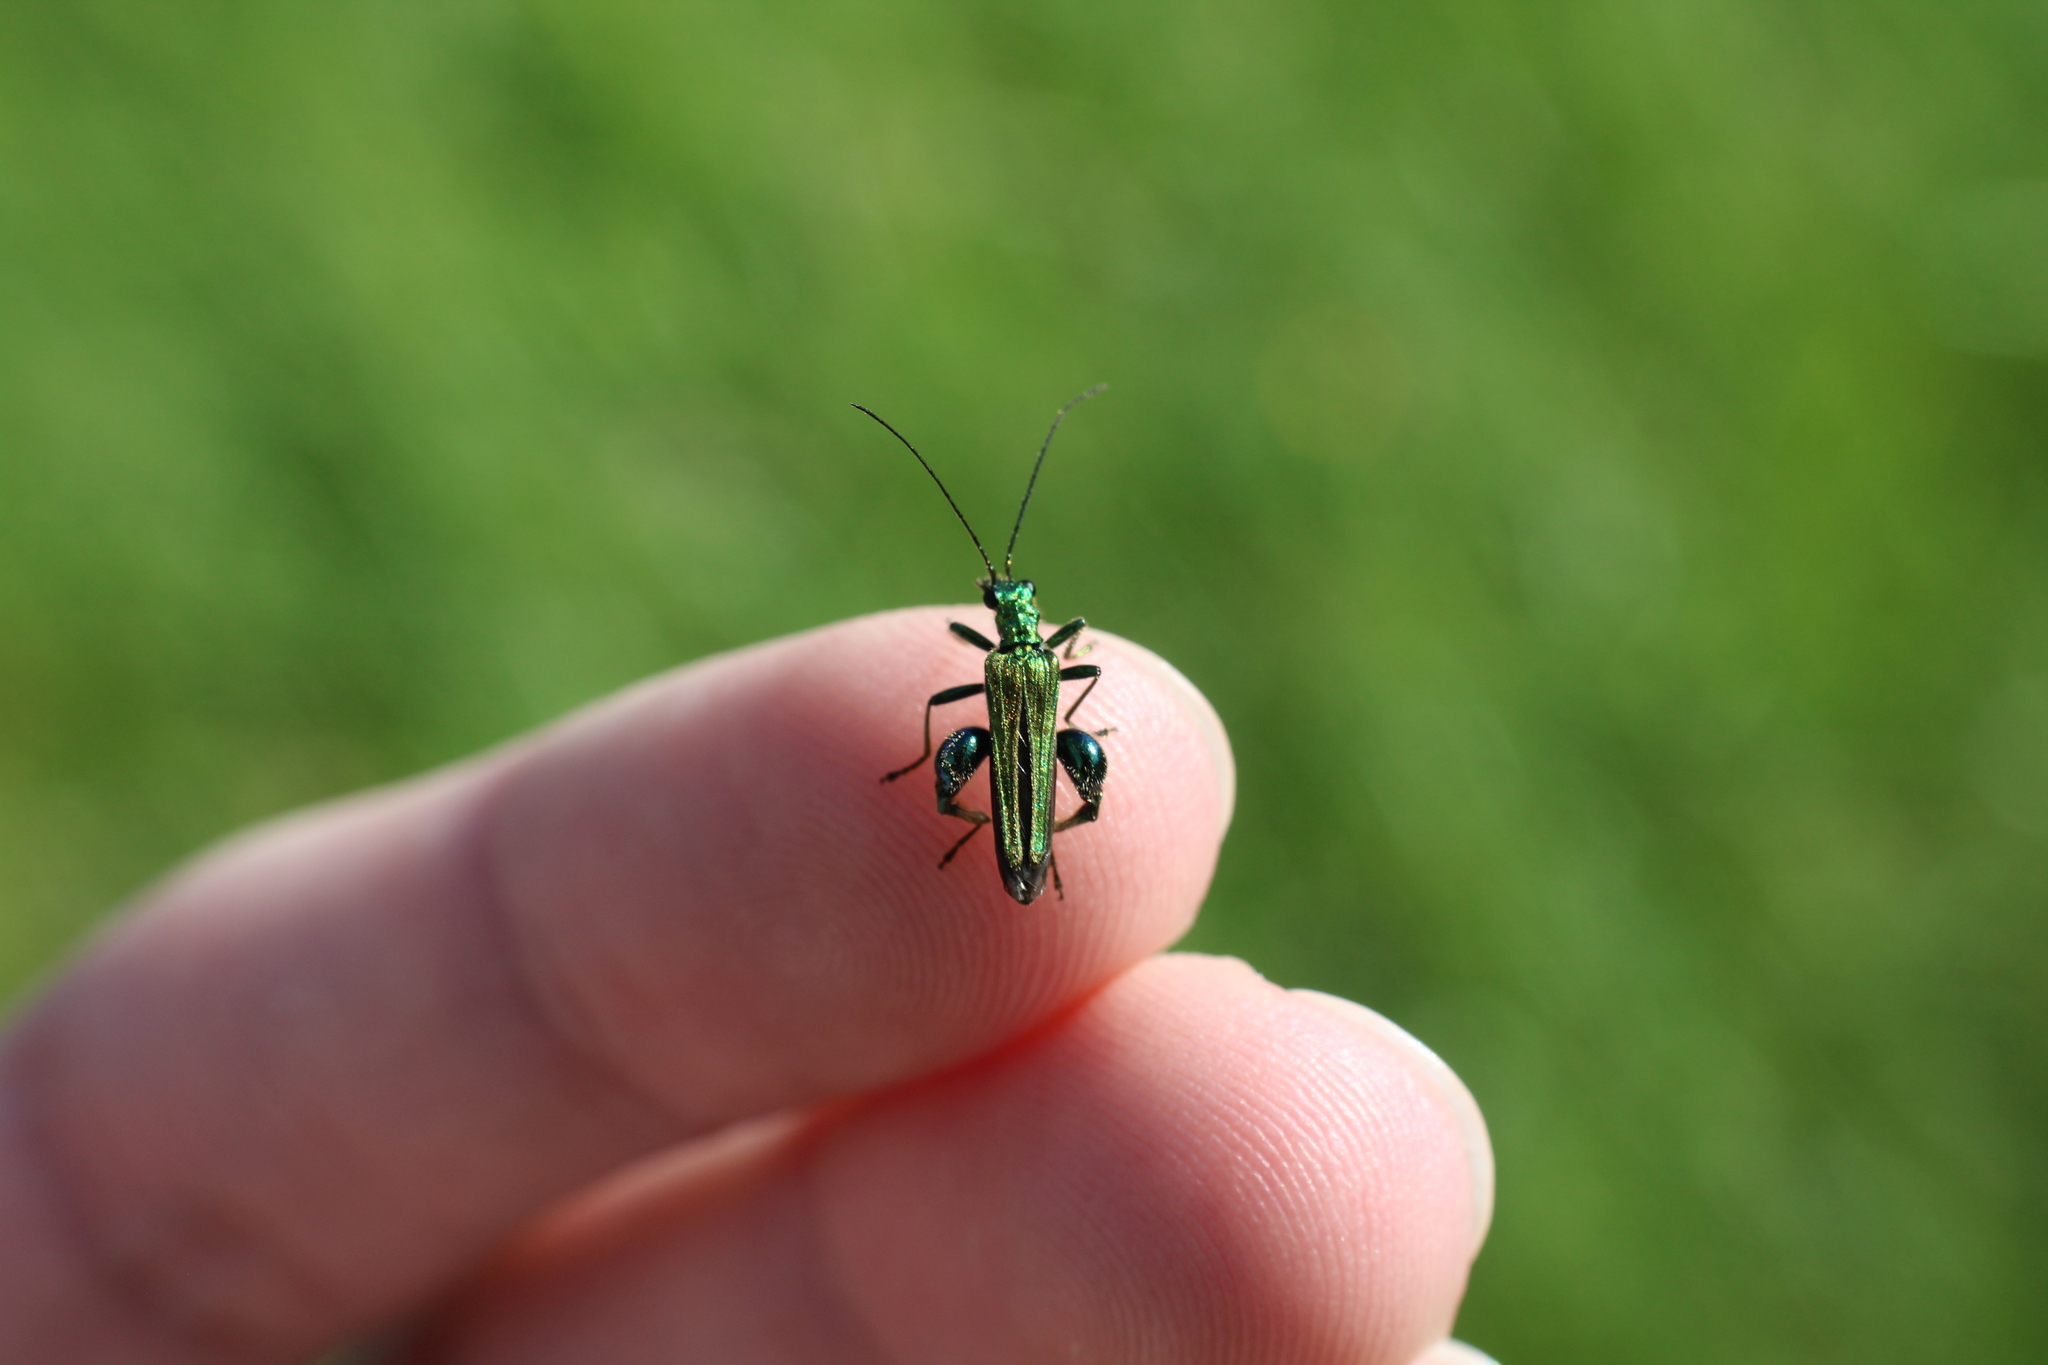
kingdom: Animalia
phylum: Arthropoda
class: Insecta
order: Coleoptera
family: Oedemeridae
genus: Oedemera
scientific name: Oedemera nobilis
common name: Swollen-thighed beetle
